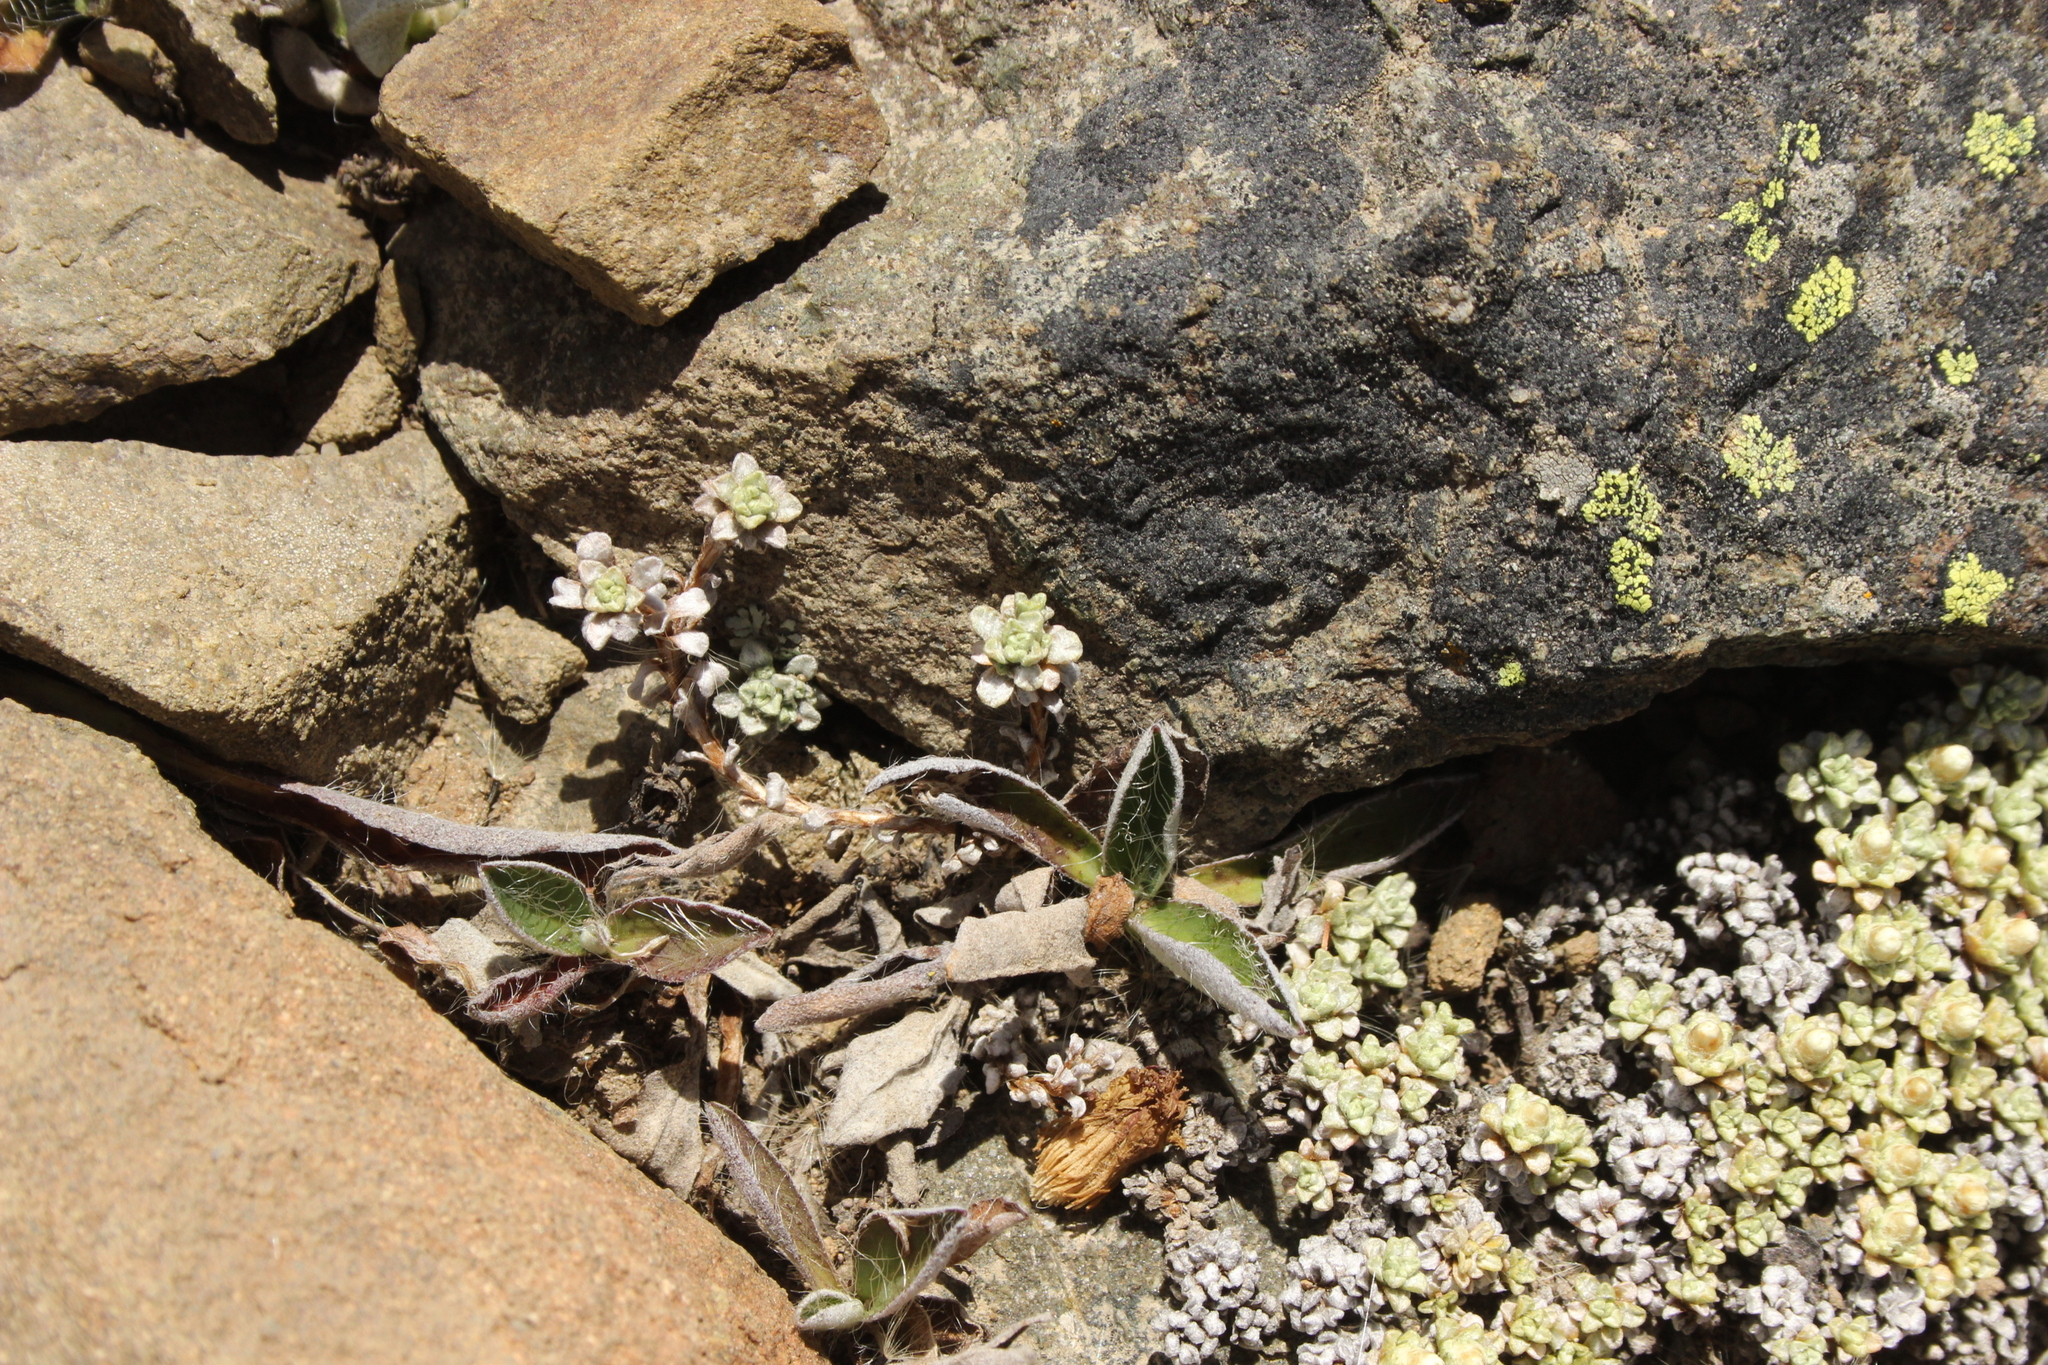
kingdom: Plantae
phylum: Tracheophyta
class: Magnoliopsida
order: Asterales
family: Asteraceae
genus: Raoulia
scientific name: Raoulia parkii
